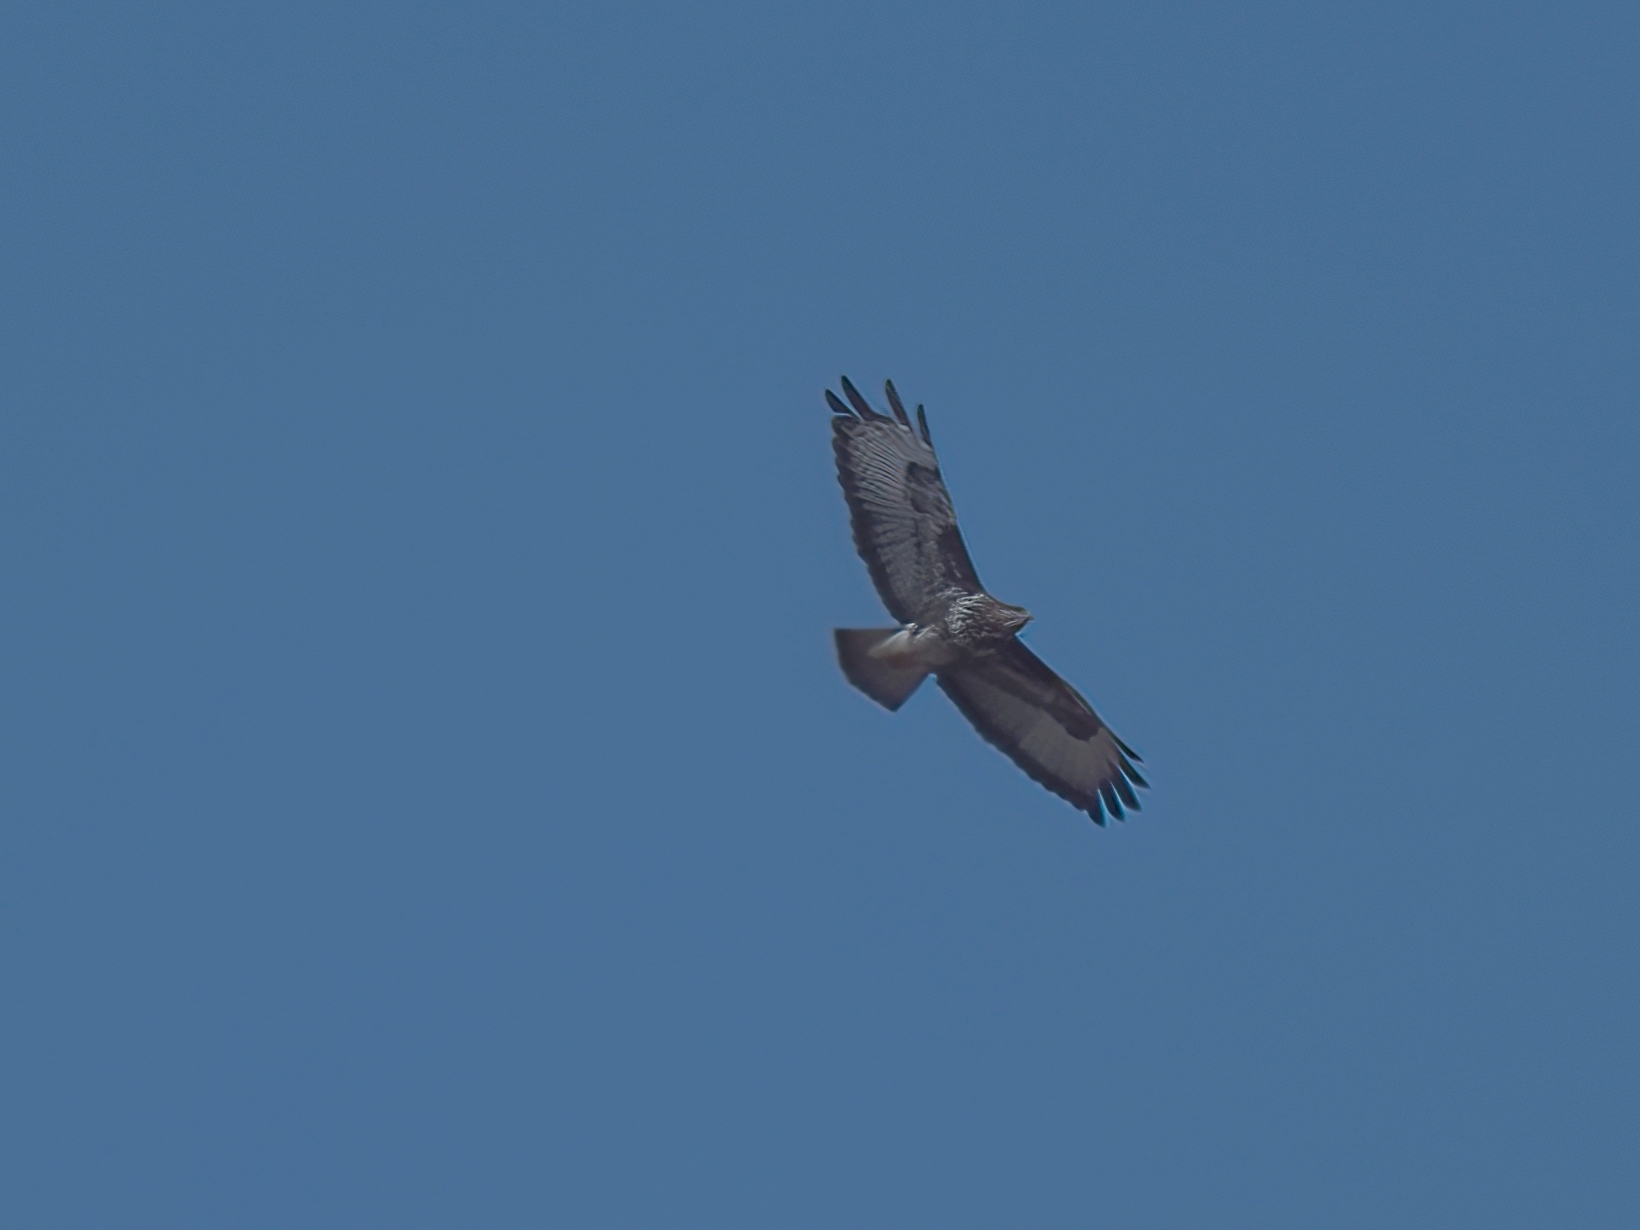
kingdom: Animalia
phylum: Chordata
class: Aves
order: Accipitriformes
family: Accipitridae
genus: Buteo
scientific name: Buteo buteo
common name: Common buzzard
